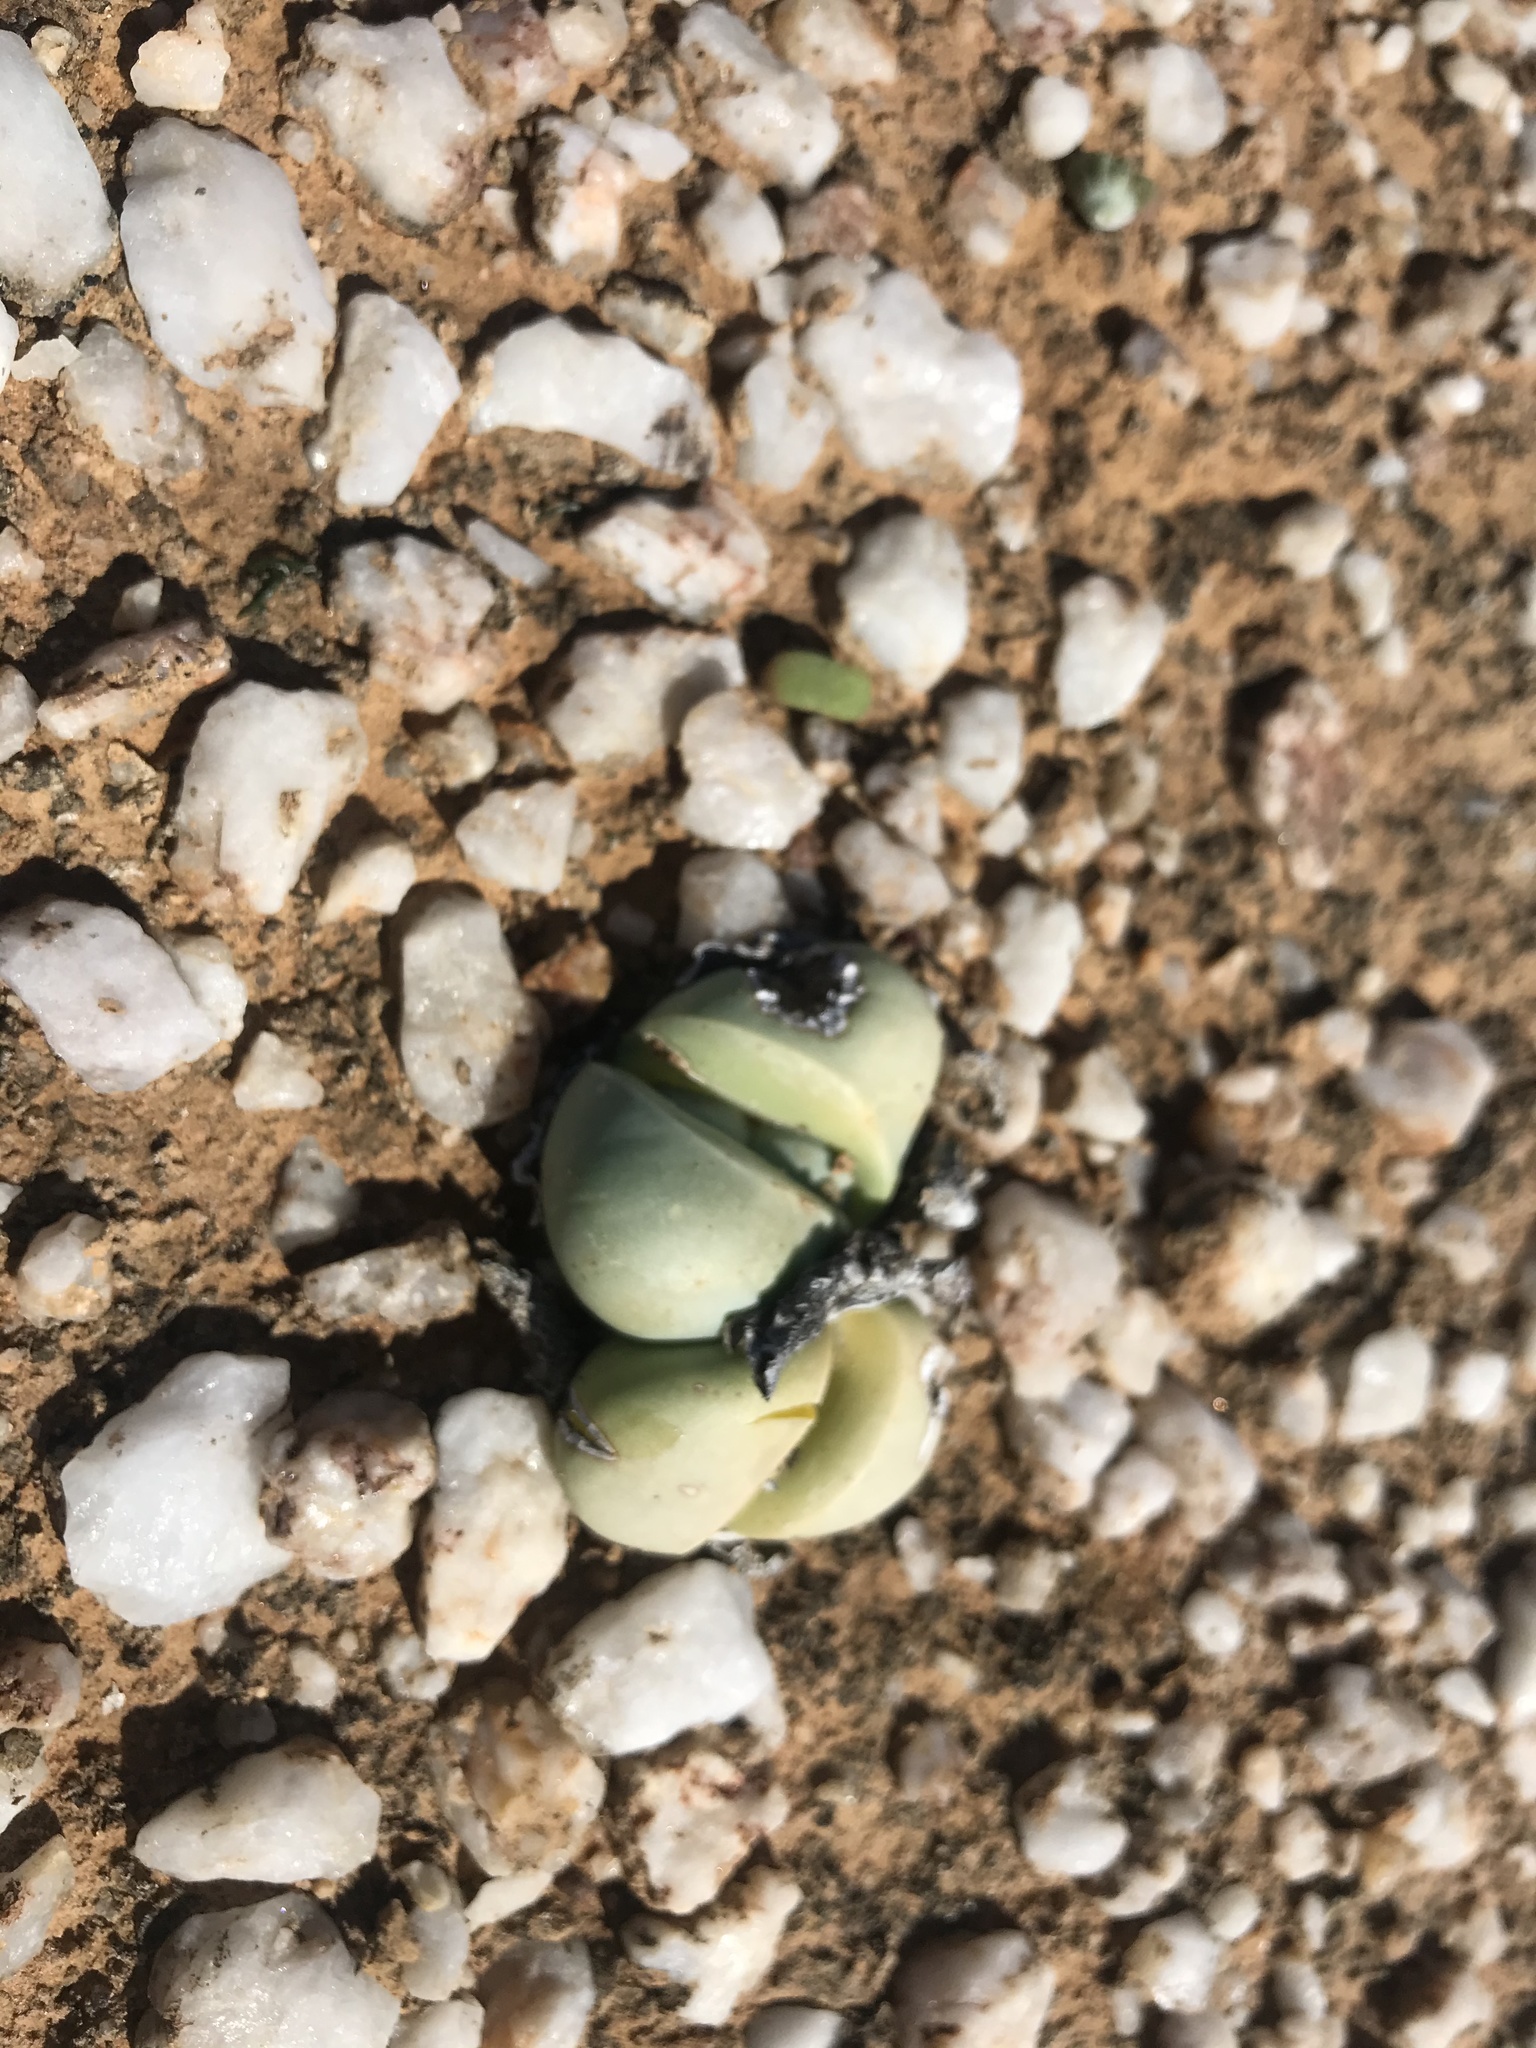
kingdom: Plantae
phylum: Tracheophyta
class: Magnoliopsida
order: Caryophyllales
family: Aizoaceae
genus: Argyroderma
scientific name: Argyroderma delaetii
